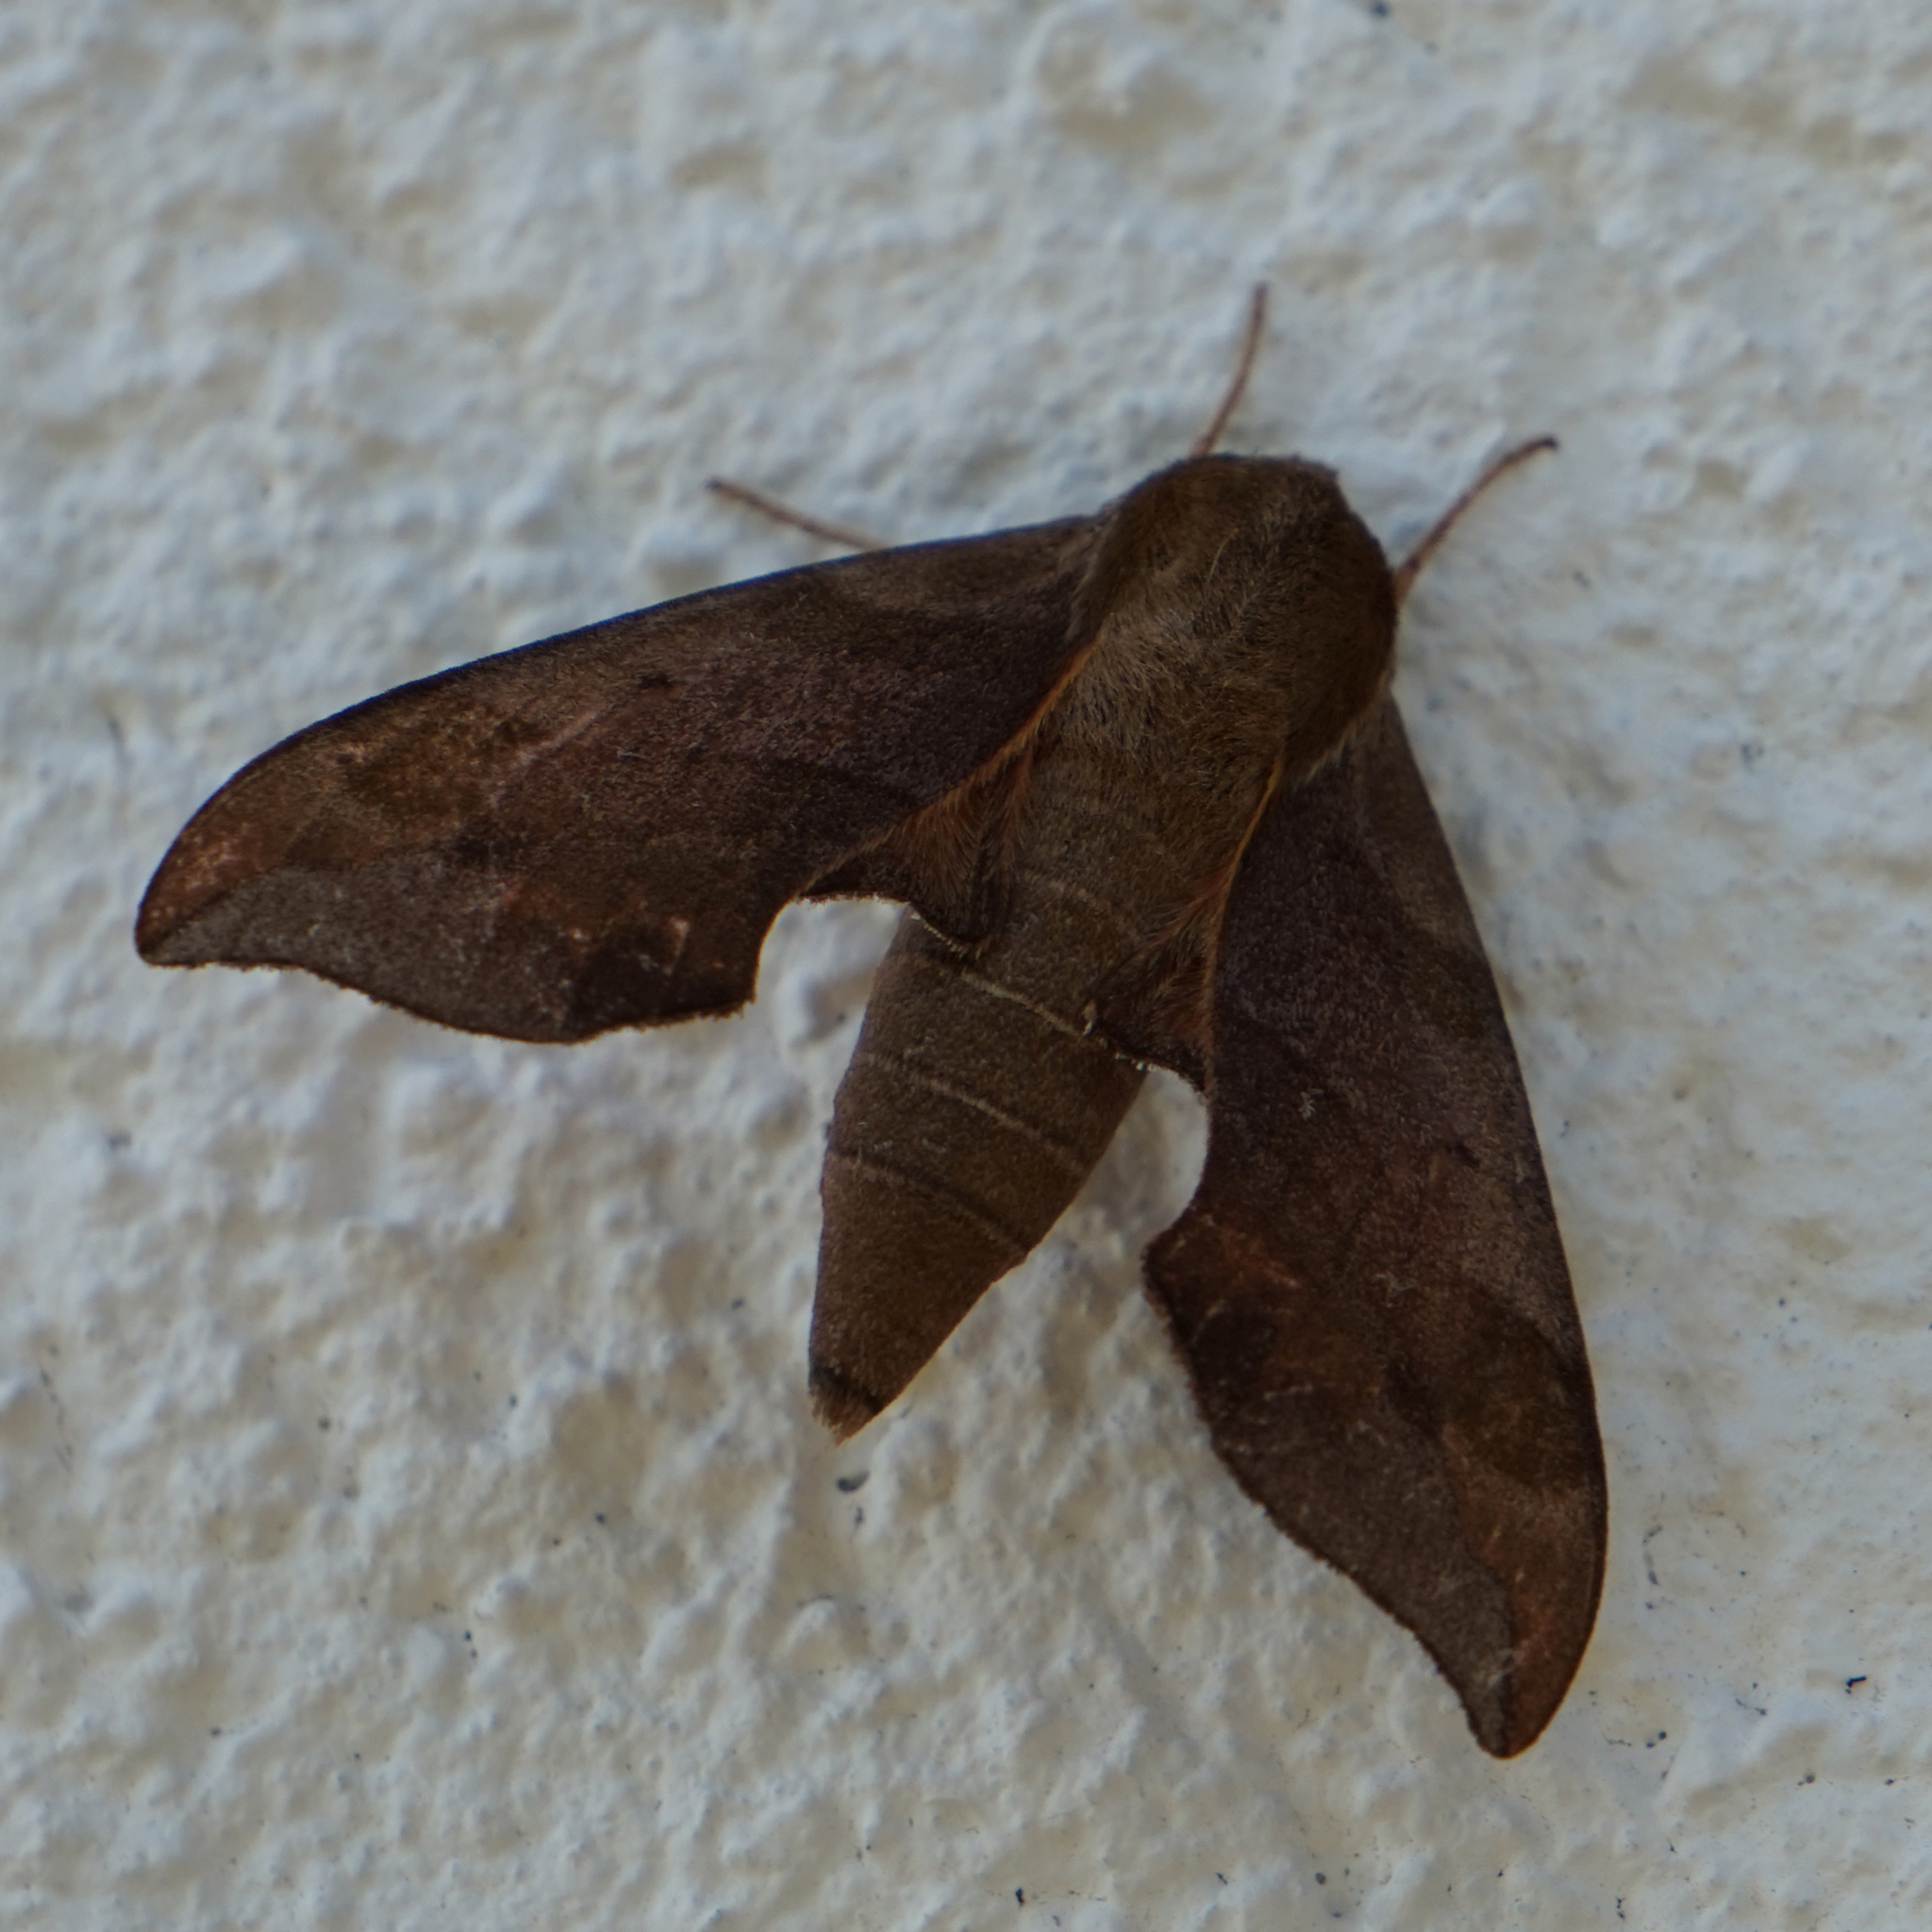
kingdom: Animalia
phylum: Arthropoda
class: Insecta
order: Lepidoptera
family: Sphingidae
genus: Darapsa
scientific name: Darapsa myron
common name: Hog sphinx
